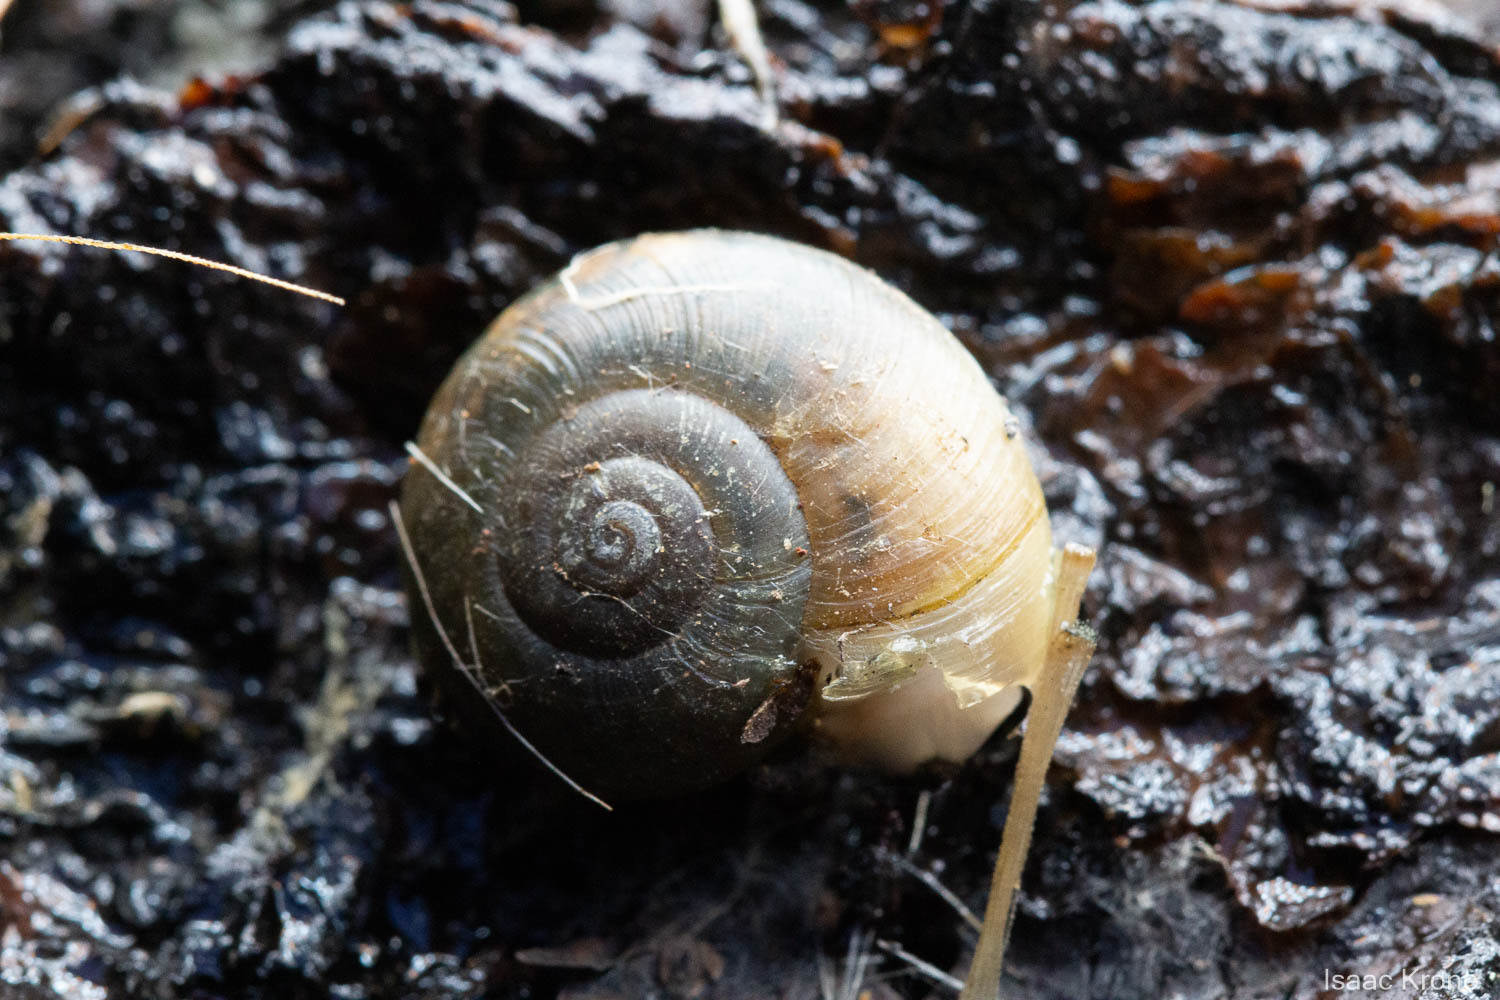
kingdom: Animalia
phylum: Mollusca
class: Gastropoda
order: Stylommatophora
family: Haplotrematidae
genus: Haplotrema
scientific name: Haplotrema minimum
